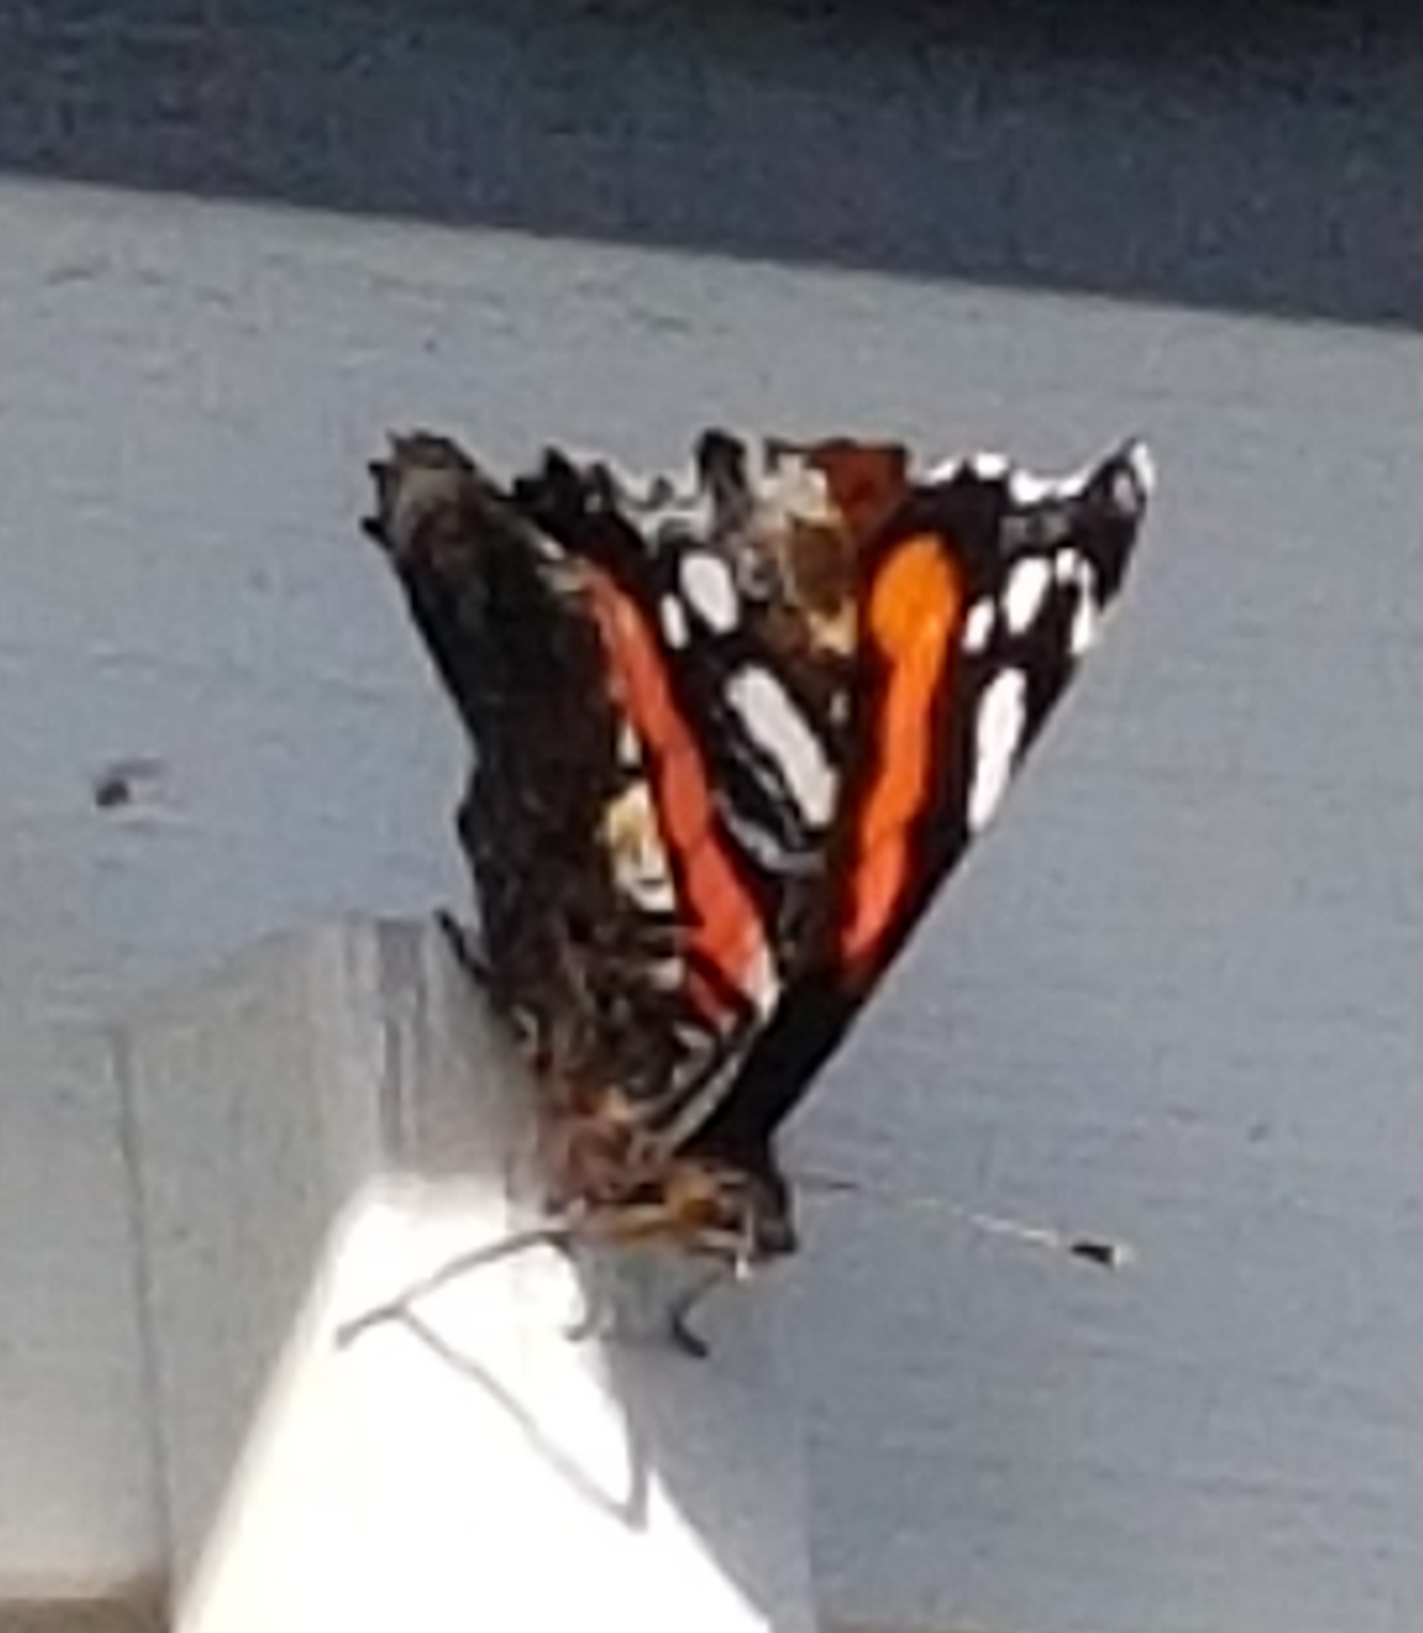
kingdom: Animalia
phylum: Arthropoda
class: Insecta
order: Lepidoptera
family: Nymphalidae
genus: Vanessa
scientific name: Vanessa atalanta
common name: Red admiral
